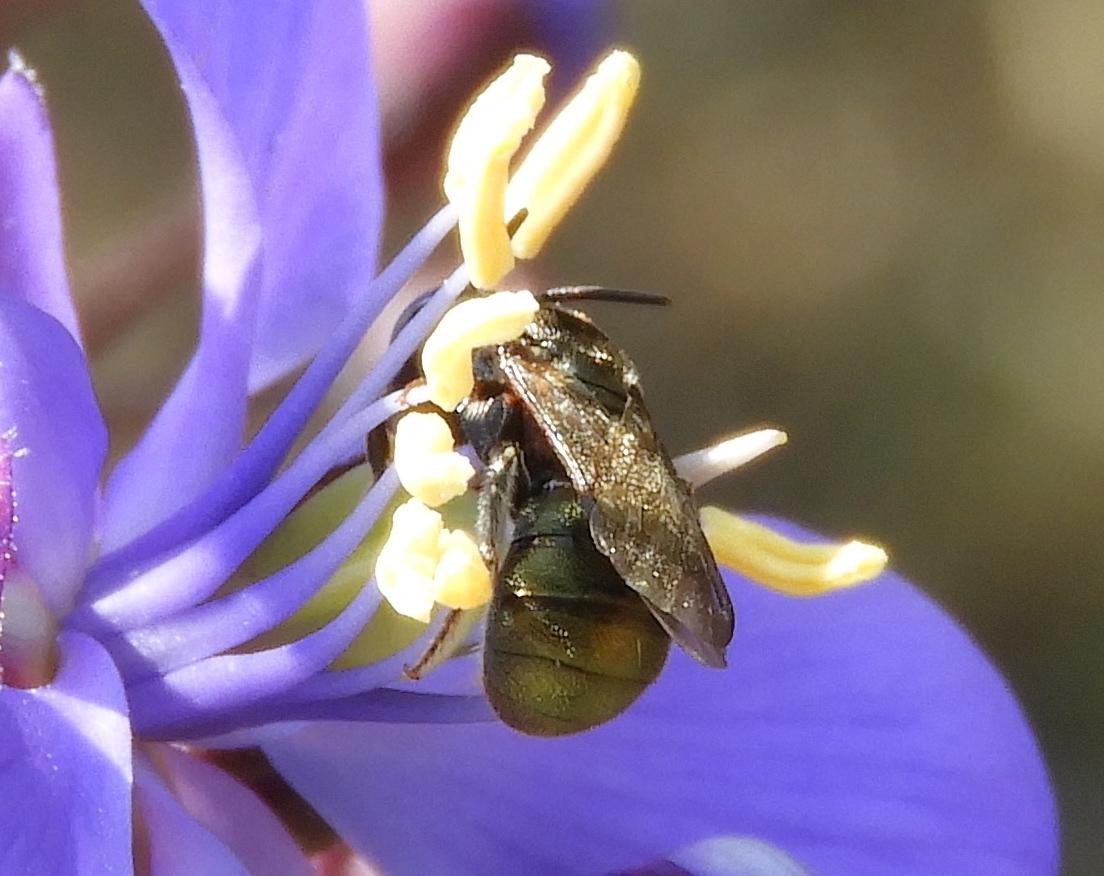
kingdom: Animalia
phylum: Arthropoda
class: Insecta
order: Hymenoptera
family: Apidae
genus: Ceratina
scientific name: Ceratina
